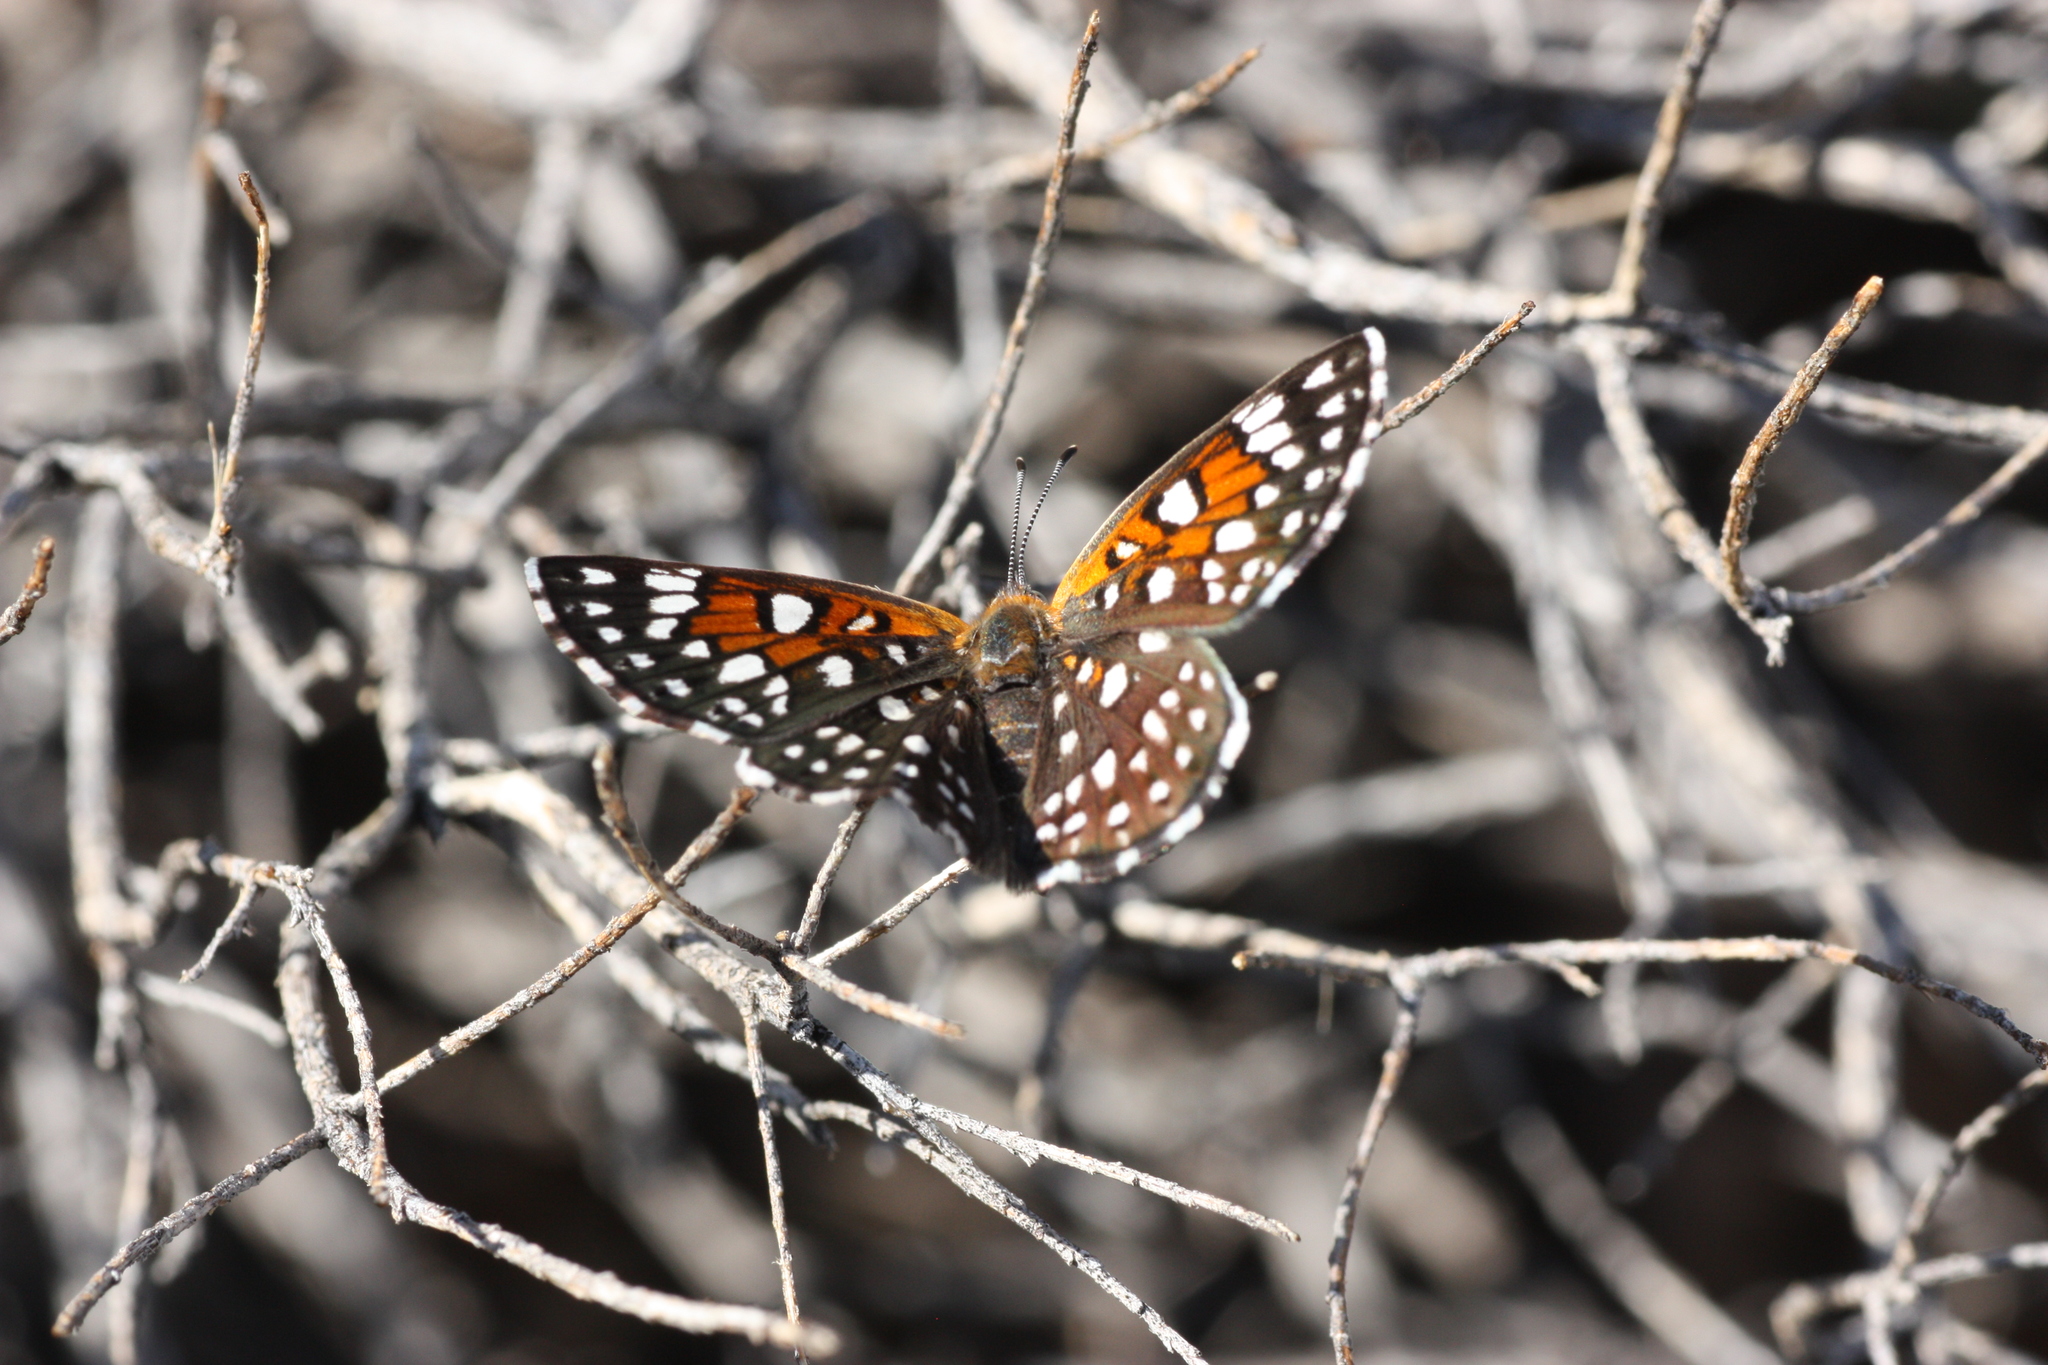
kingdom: Animalia
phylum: Arthropoda
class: Insecta
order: Lepidoptera
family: Riodinidae
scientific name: Riodinidae
